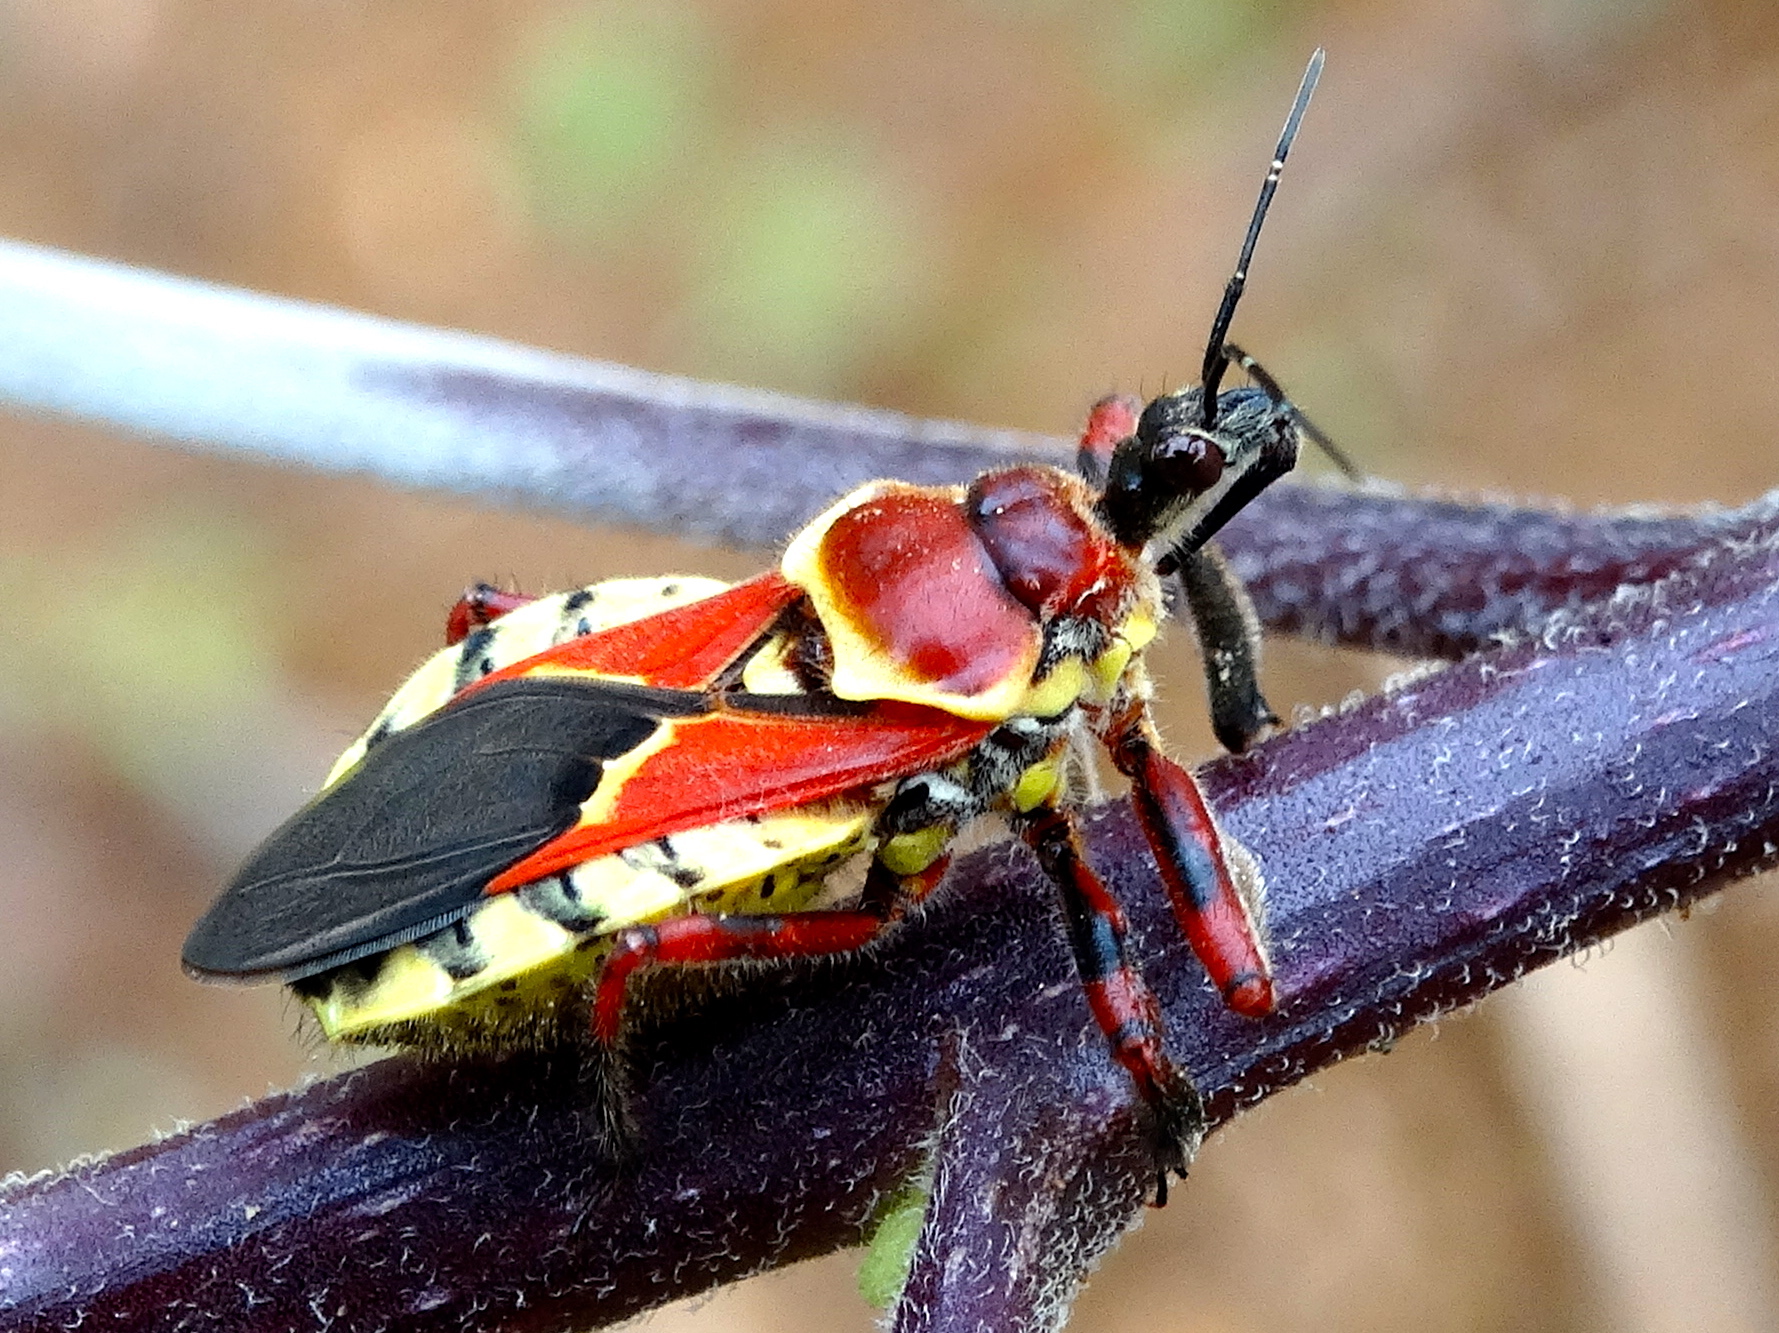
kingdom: Animalia
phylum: Arthropoda
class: Insecta
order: Hemiptera
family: Reduviidae
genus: Apiomerus
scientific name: Apiomerus flaviventris
